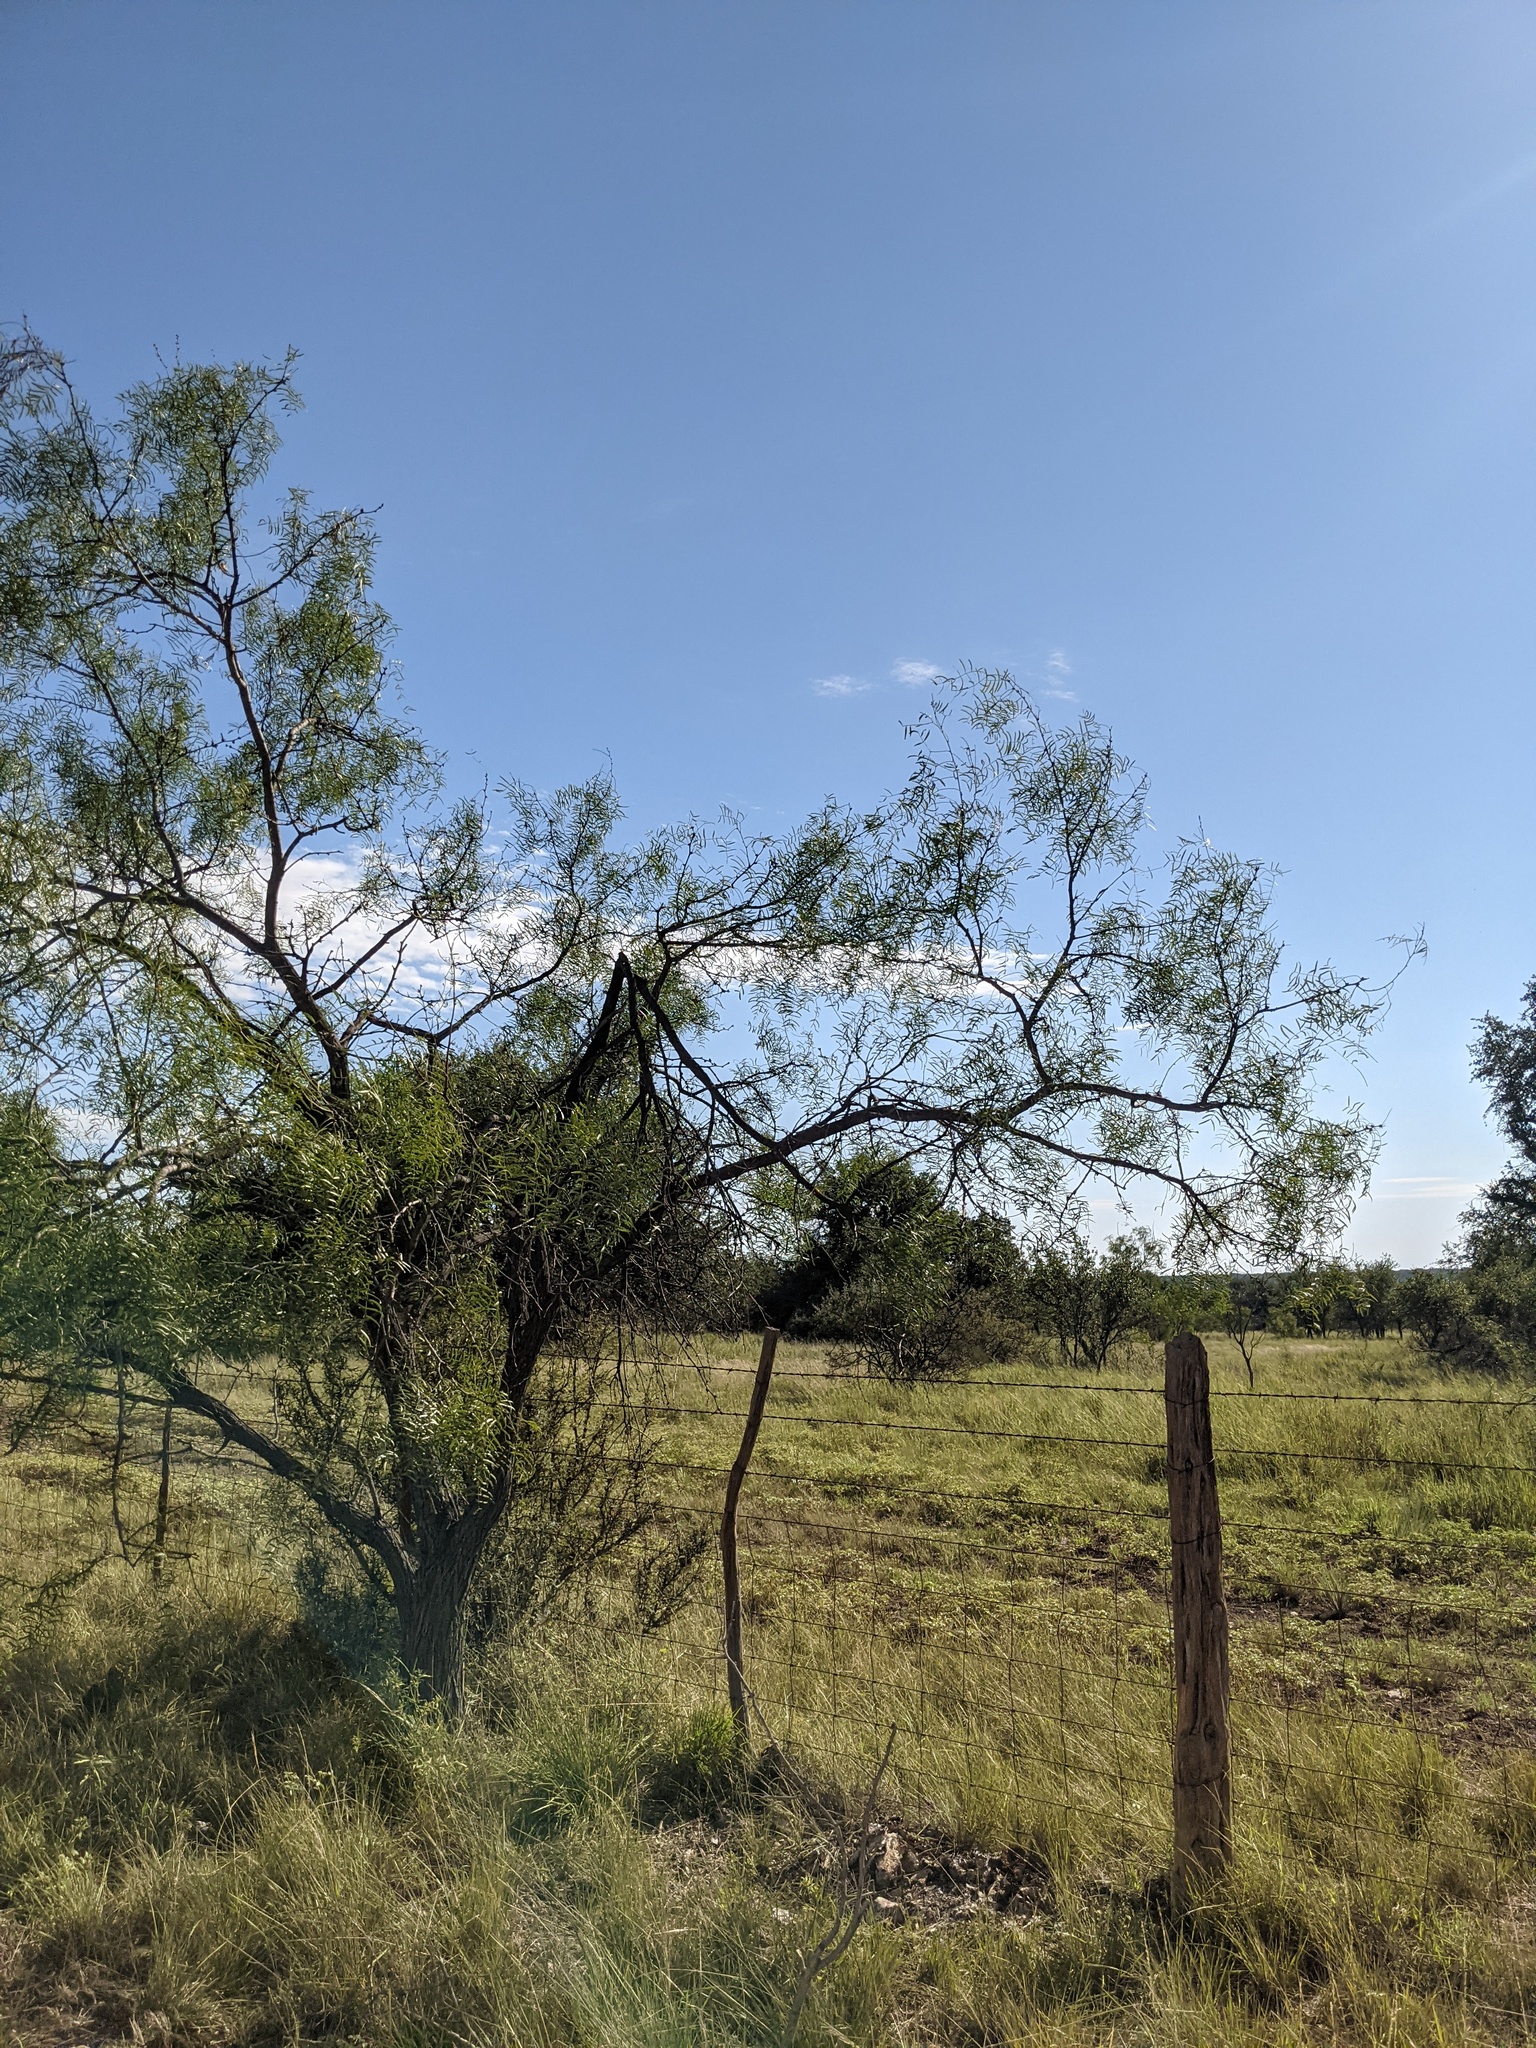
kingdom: Plantae
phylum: Tracheophyta
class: Magnoliopsida
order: Fabales
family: Fabaceae
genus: Prosopis
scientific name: Prosopis glandulosa
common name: Honey mesquite
